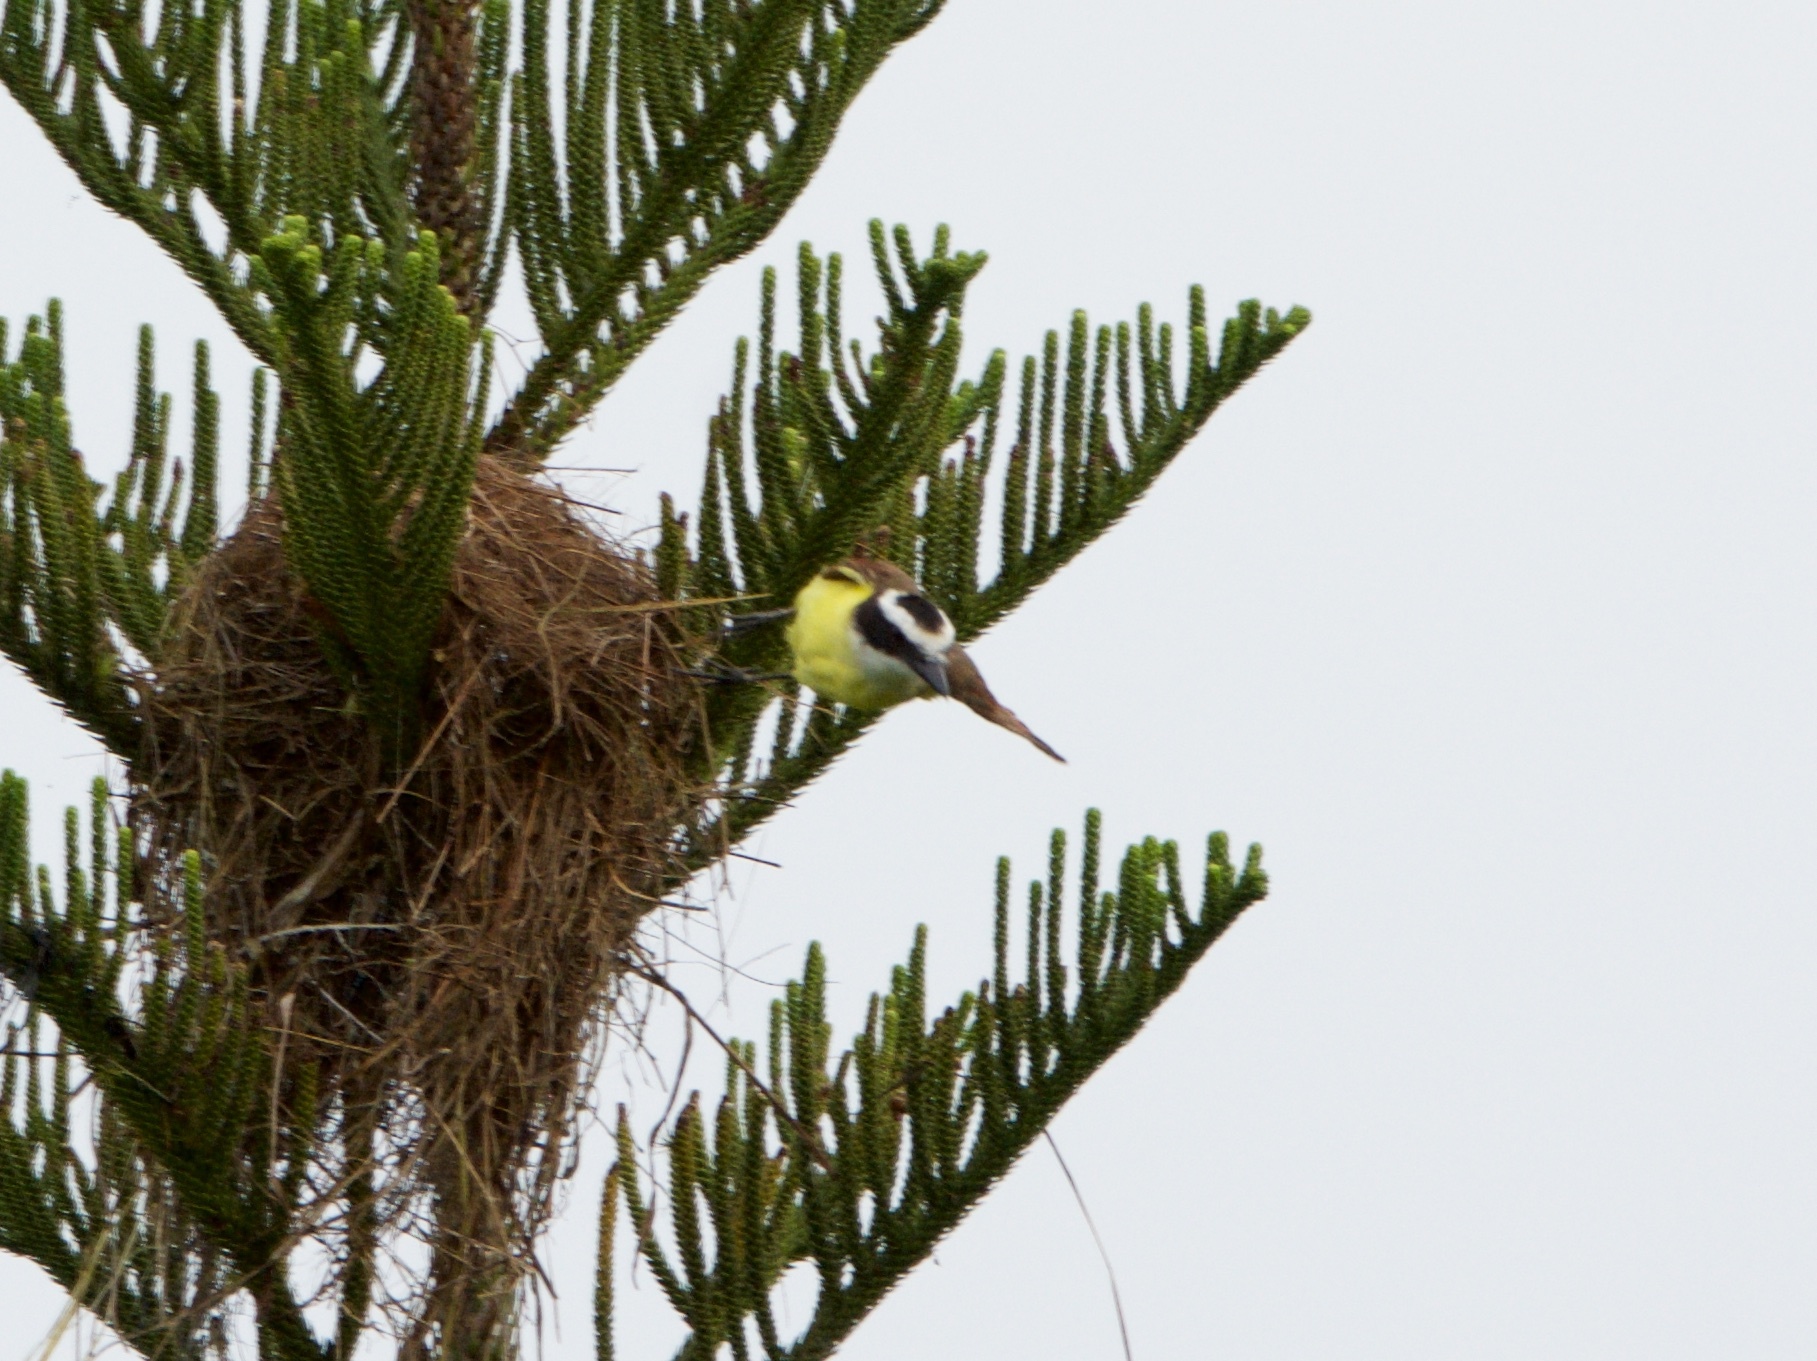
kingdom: Animalia
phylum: Chordata
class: Aves
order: Passeriformes
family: Tyrannidae
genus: Pitangus
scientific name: Pitangus sulphuratus
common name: Great kiskadee
